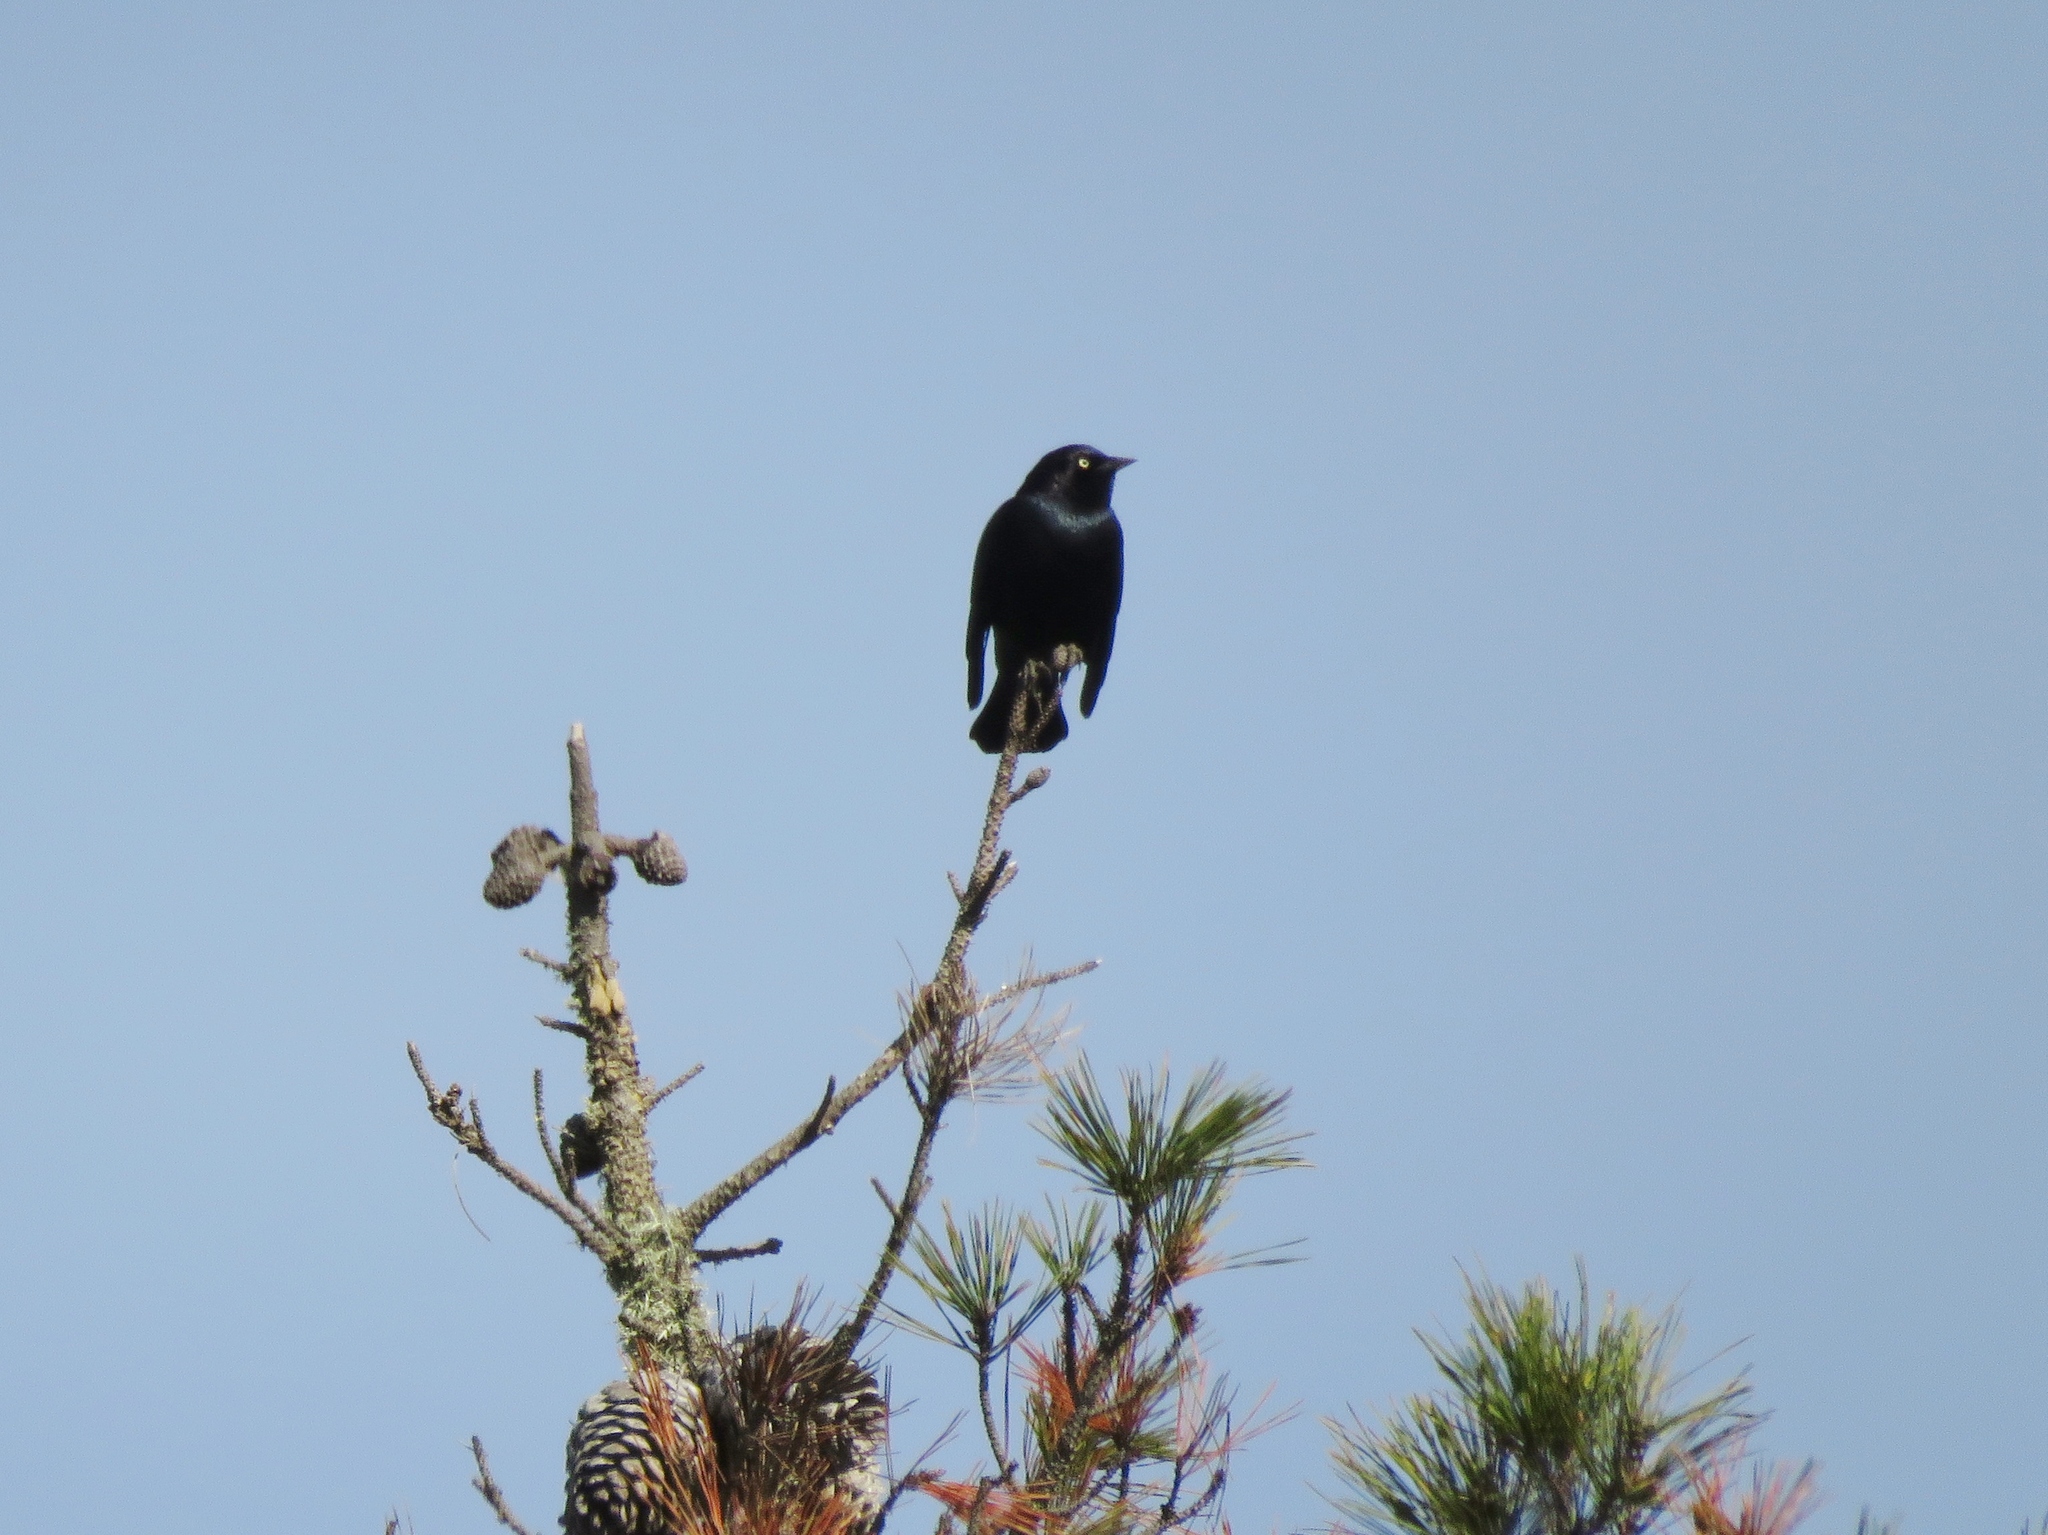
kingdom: Animalia
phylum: Chordata
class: Aves
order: Passeriformes
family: Icteridae
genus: Euphagus
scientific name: Euphagus cyanocephalus
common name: Brewer's blackbird
